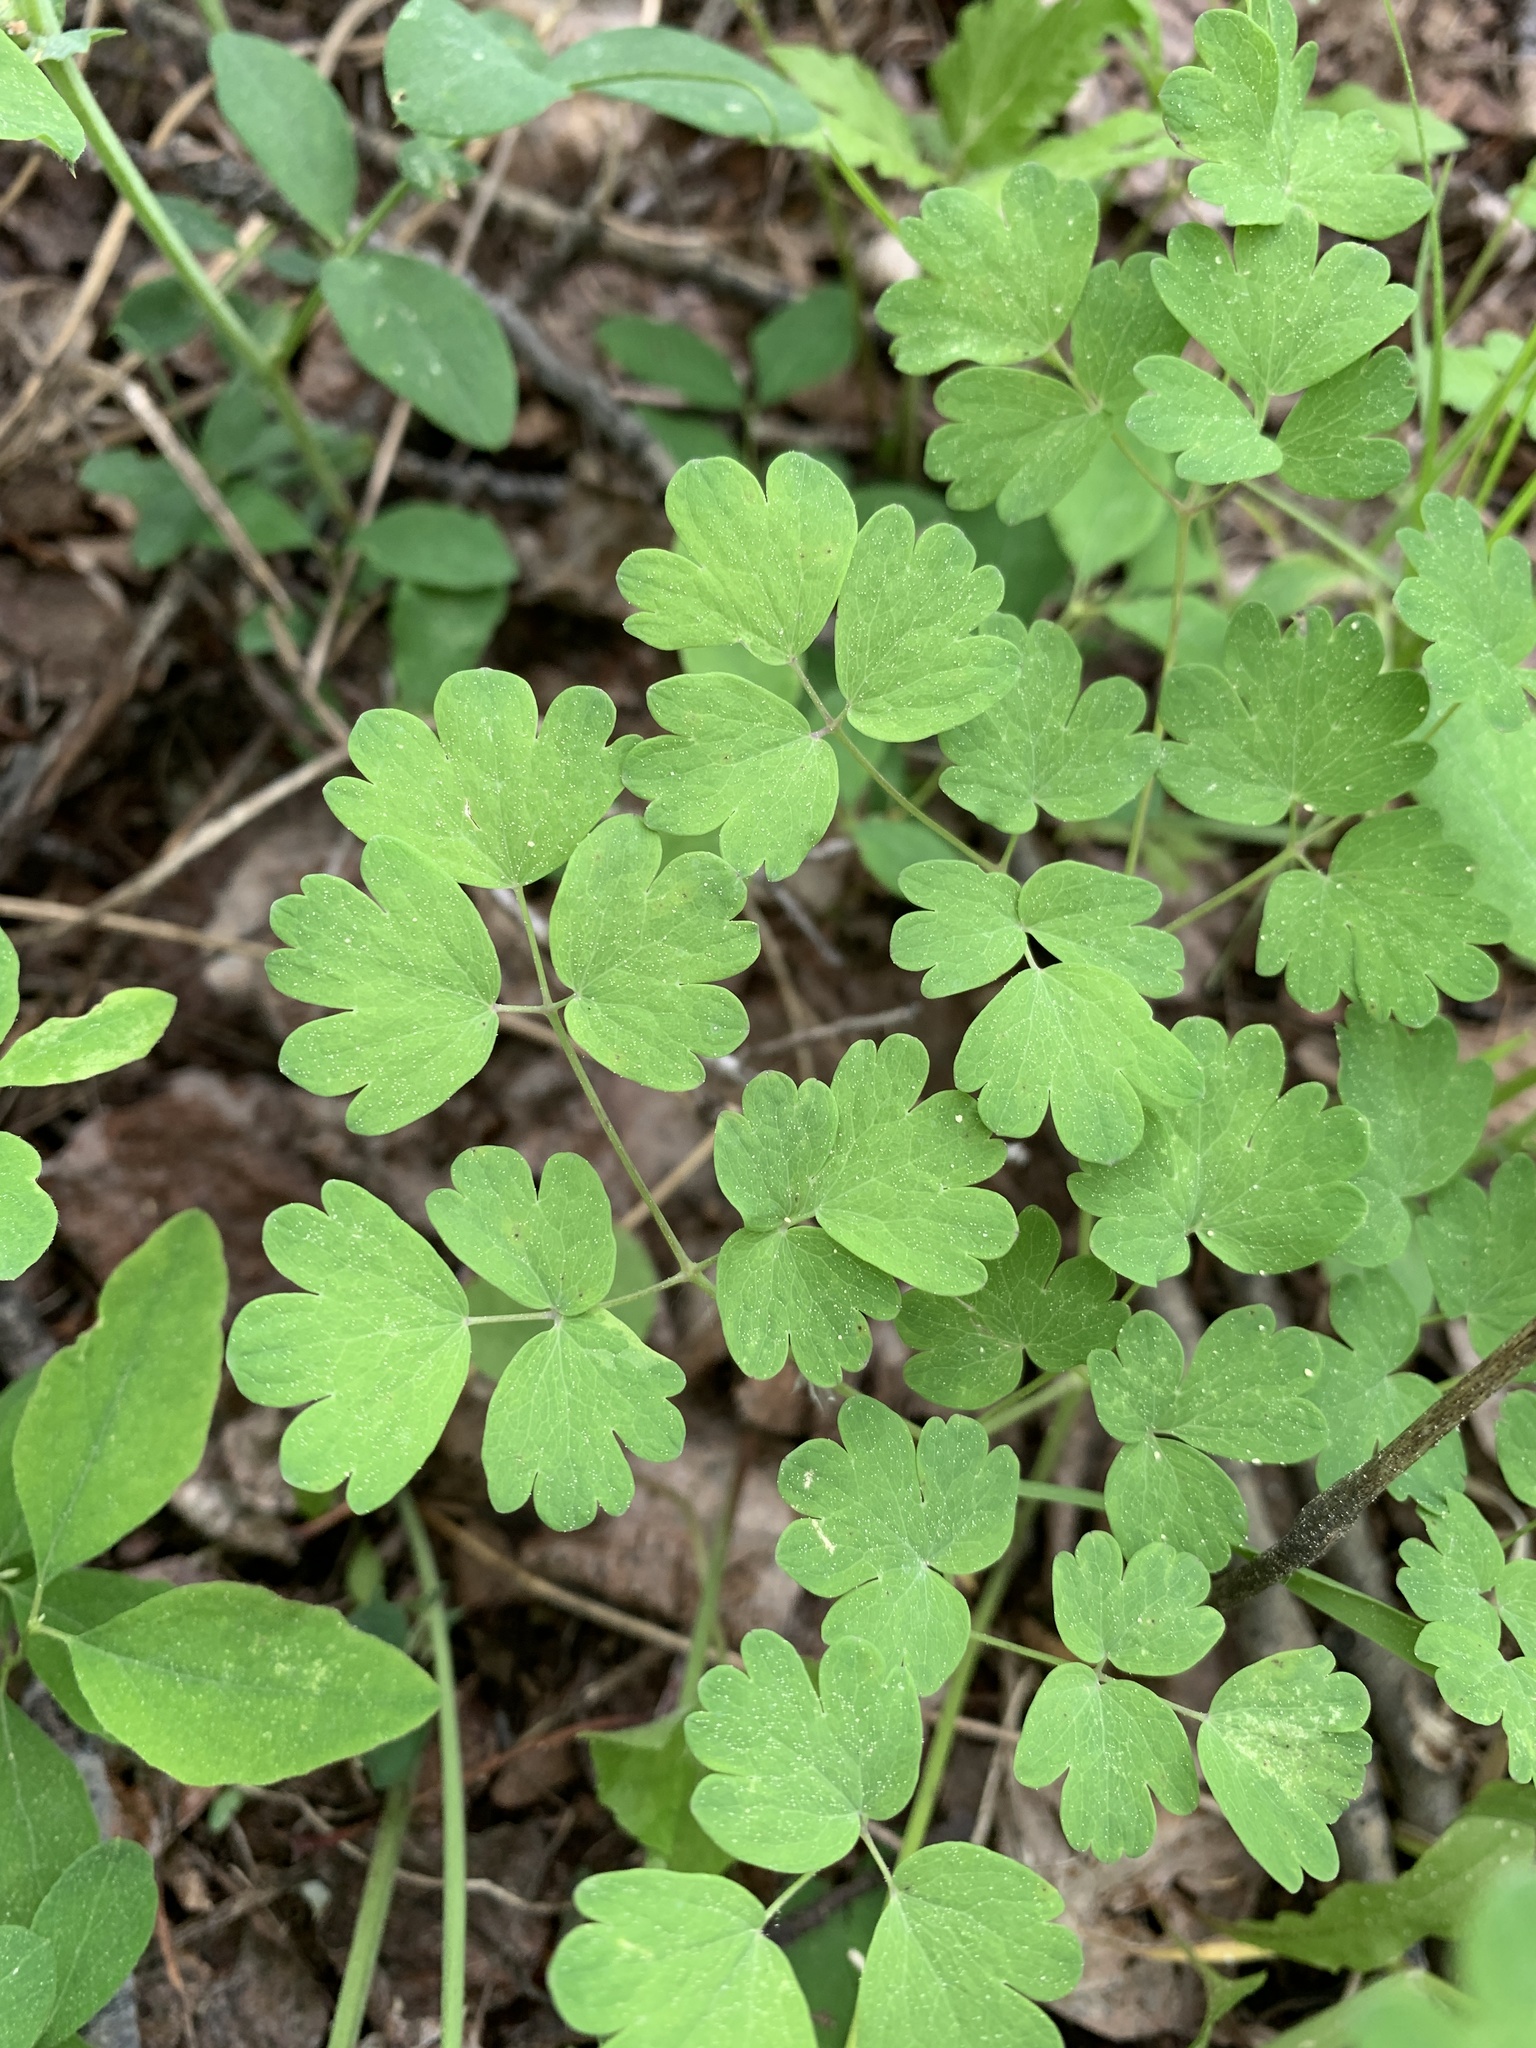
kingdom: Plantae
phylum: Tracheophyta
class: Magnoliopsida
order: Ranunculales
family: Ranunculaceae
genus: Thalictrum
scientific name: Thalictrum occidentale
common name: Western meadow-rue
